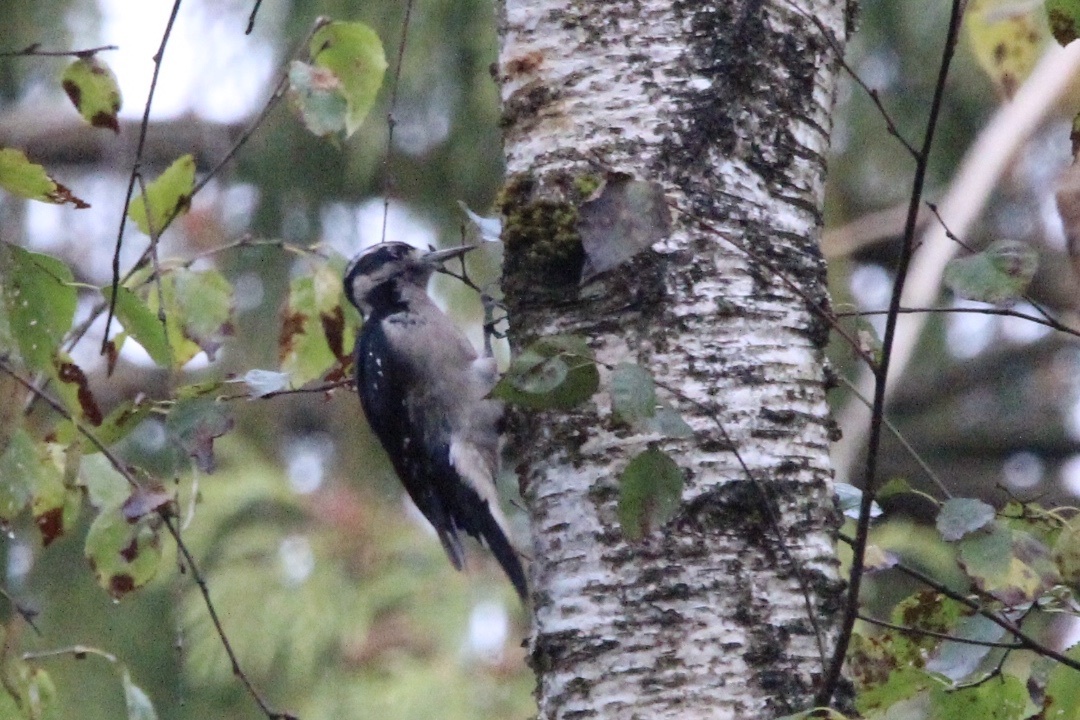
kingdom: Animalia
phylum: Chordata
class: Aves
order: Piciformes
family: Picidae
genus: Leuconotopicus
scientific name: Leuconotopicus villosus
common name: Hairy woodpecker
